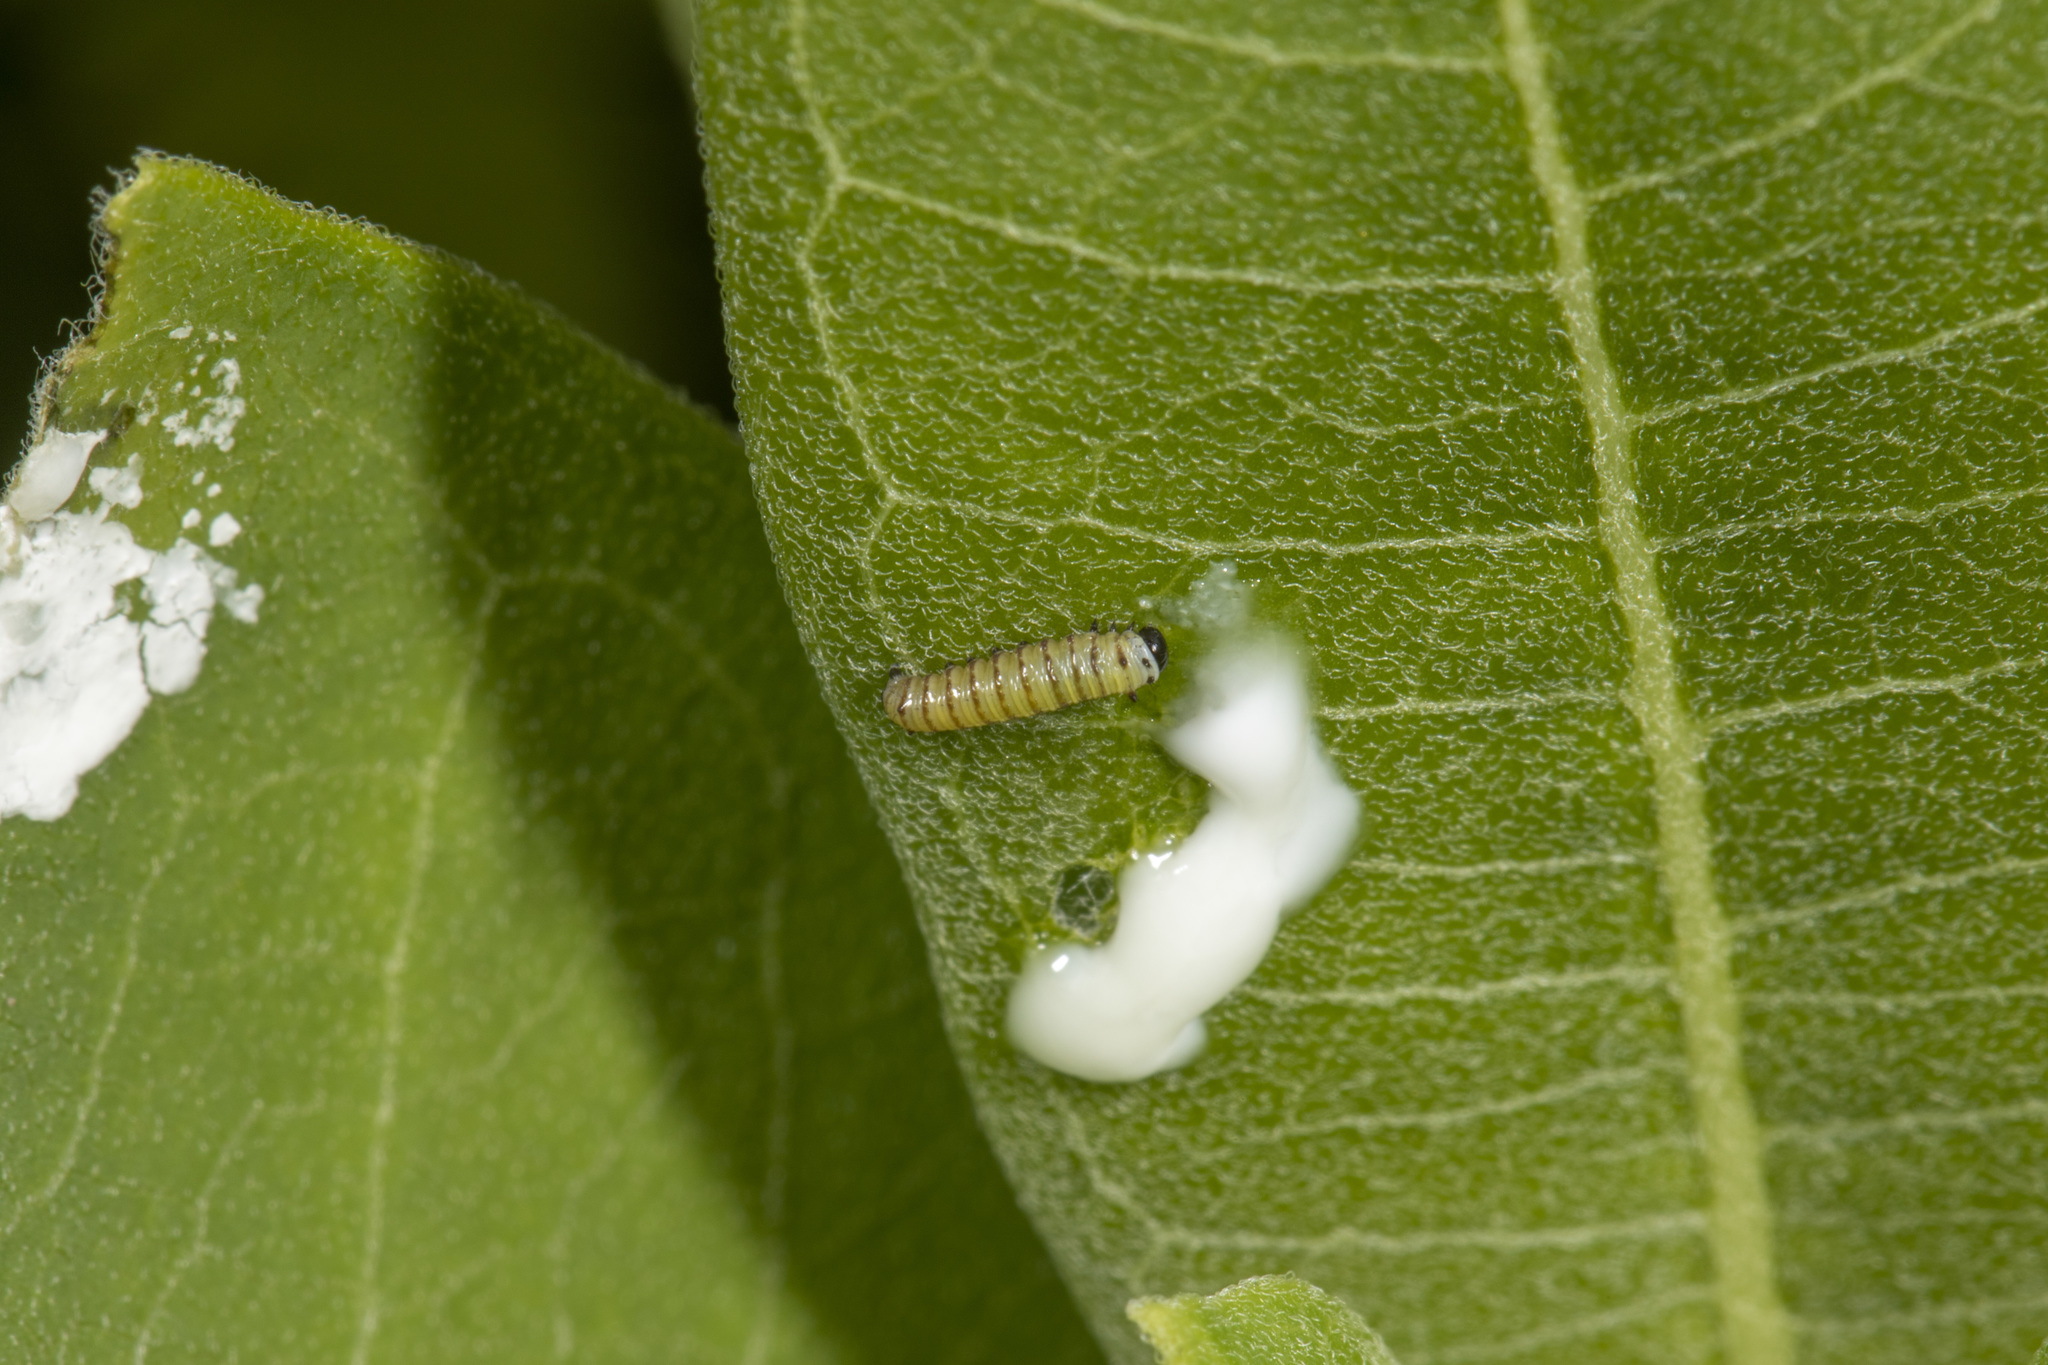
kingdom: Animalia
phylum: Arthropoda
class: Insecta
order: Lepidoptera
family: Nymphalidae
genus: Danaus
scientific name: Danaus plexippus
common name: Monarch
